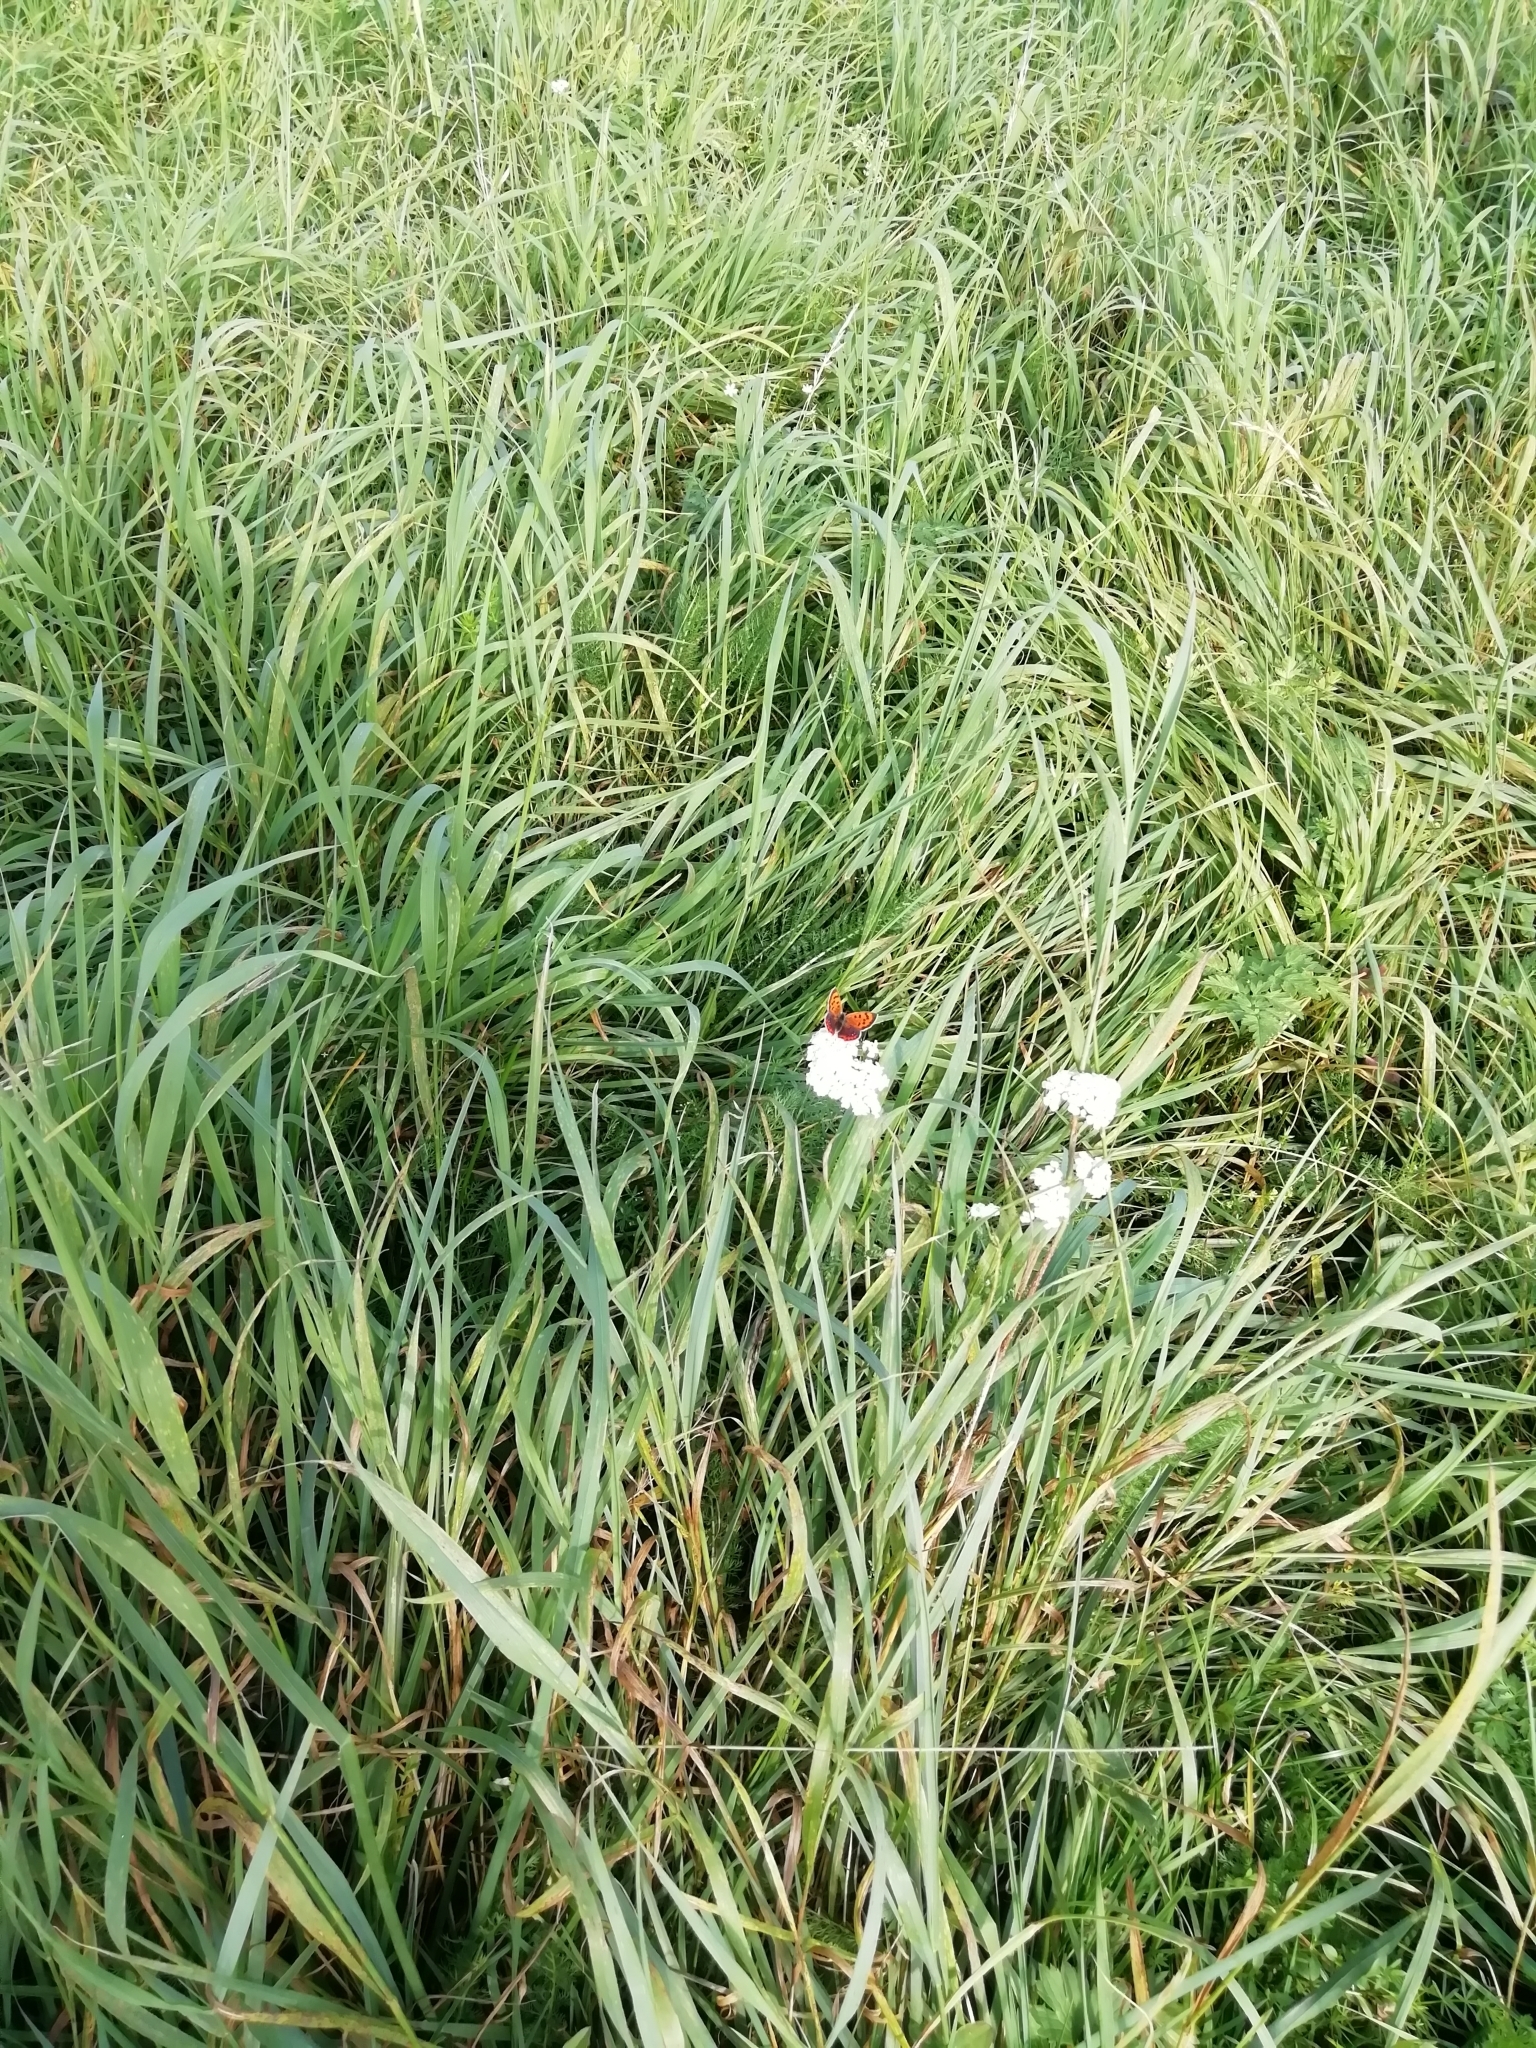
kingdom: Animalia
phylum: Arthropoda
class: Insecta
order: Lepidoptera
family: Lycaenidae
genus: Lycaena
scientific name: Lycaena phlaeas
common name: Small copper
